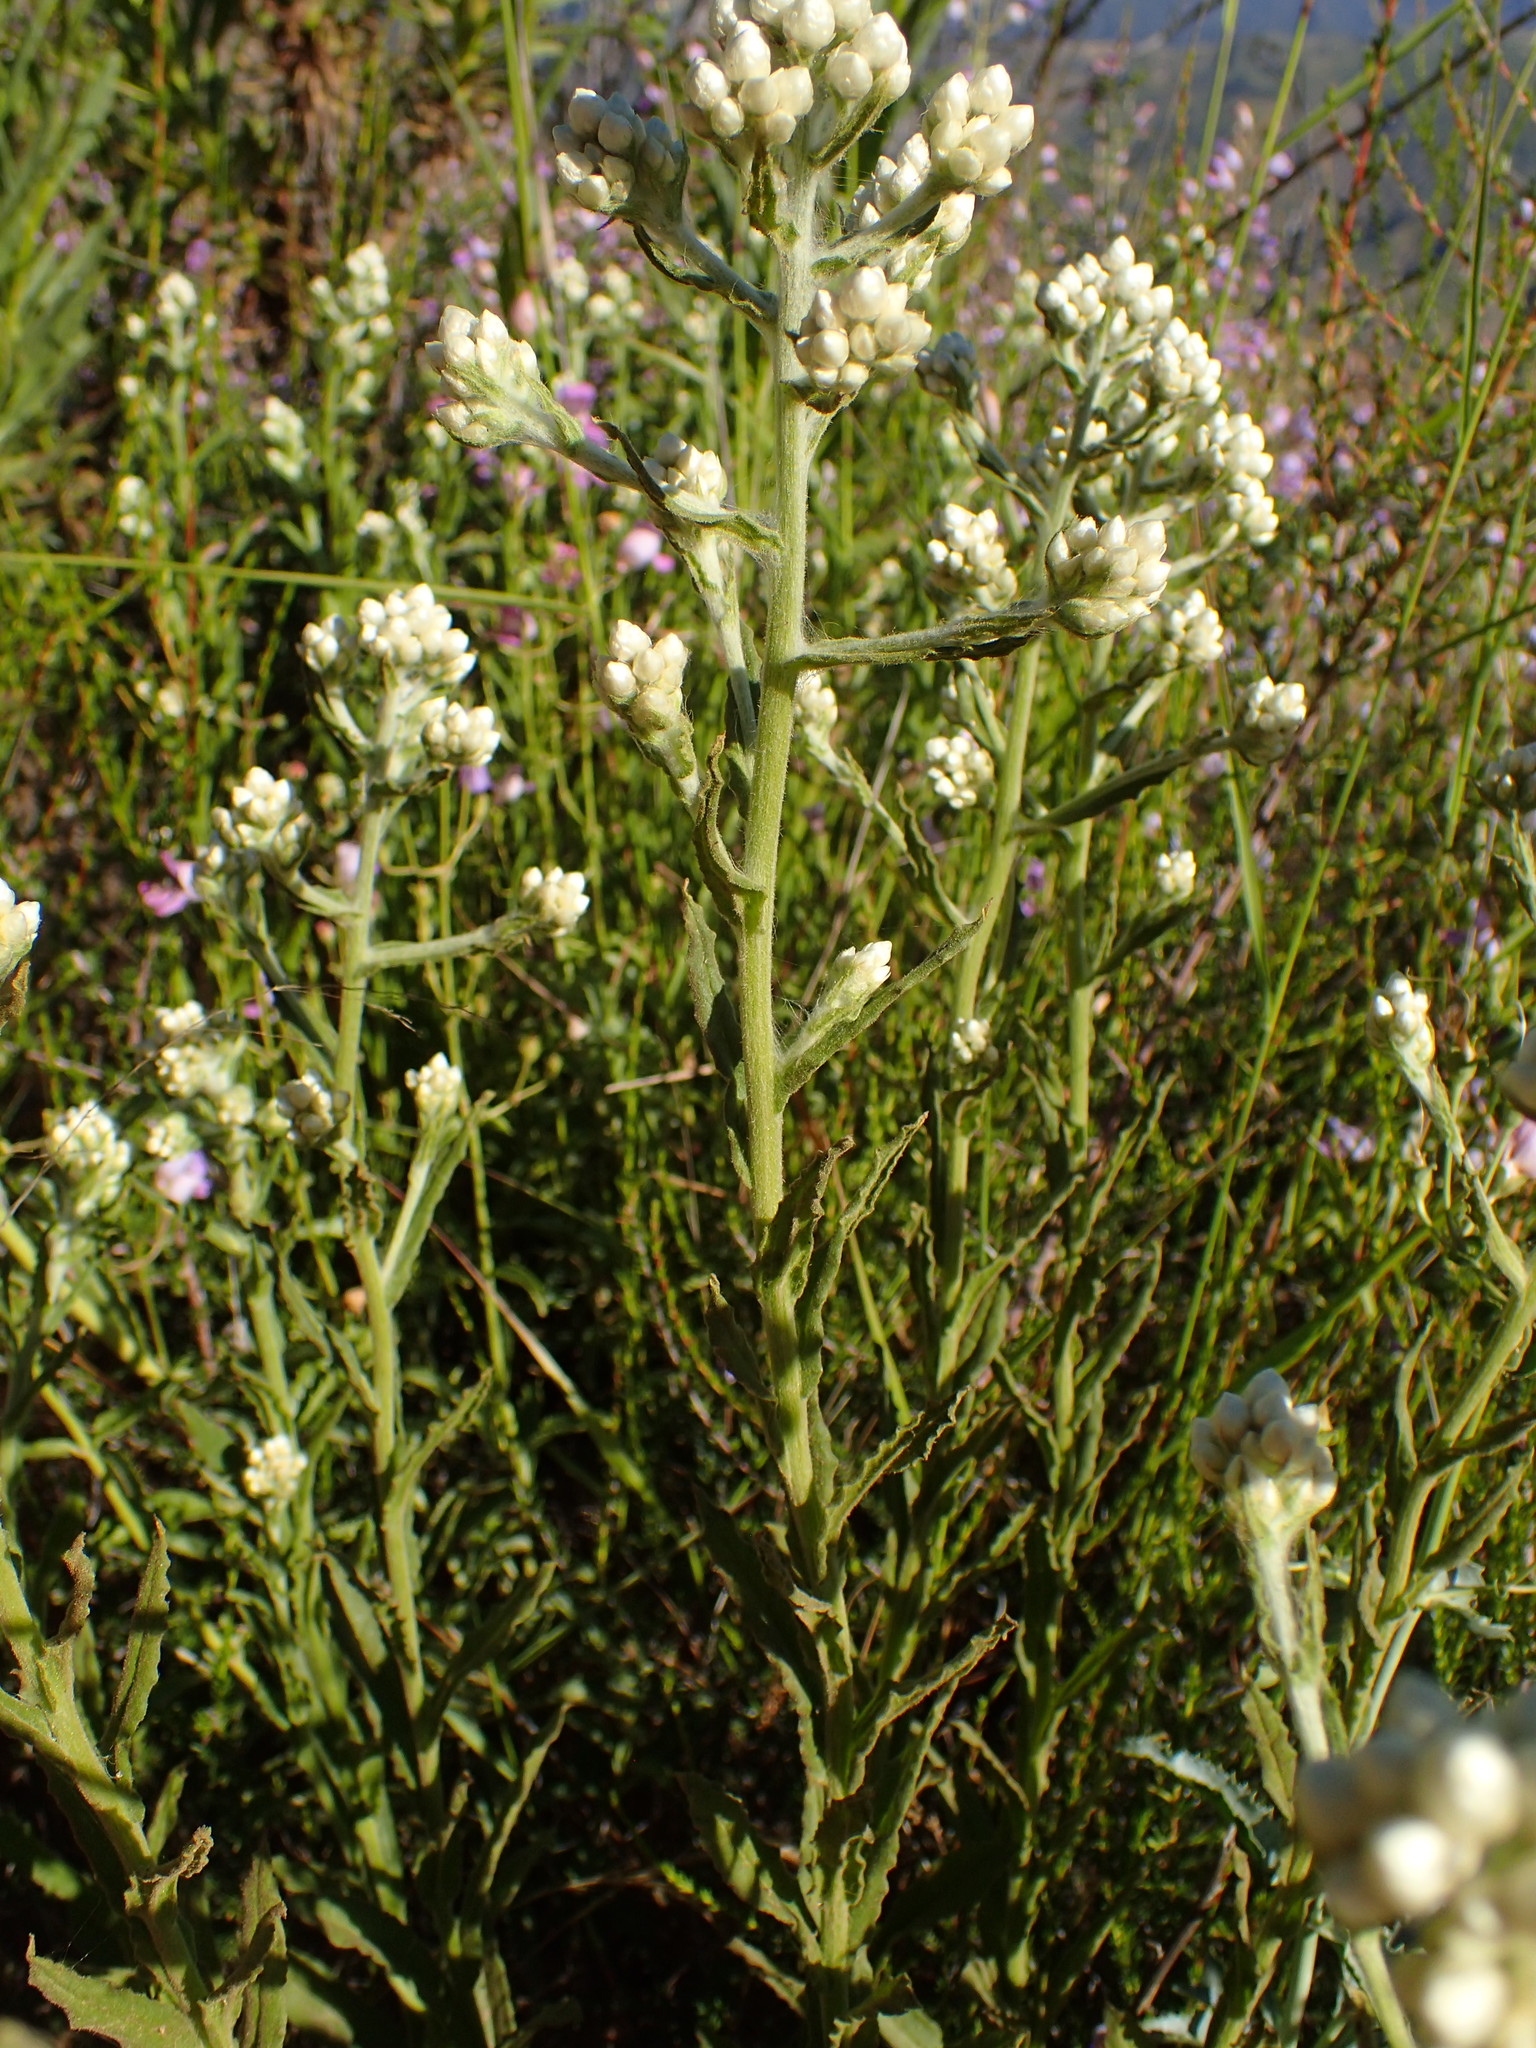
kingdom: Plantae
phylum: Tracheophyta
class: Magnoliopsida
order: Asterales
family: Asteraceae
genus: Pseudognaphalium
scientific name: Pseudognaphalium californicum
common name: California rabbit-tobacco
